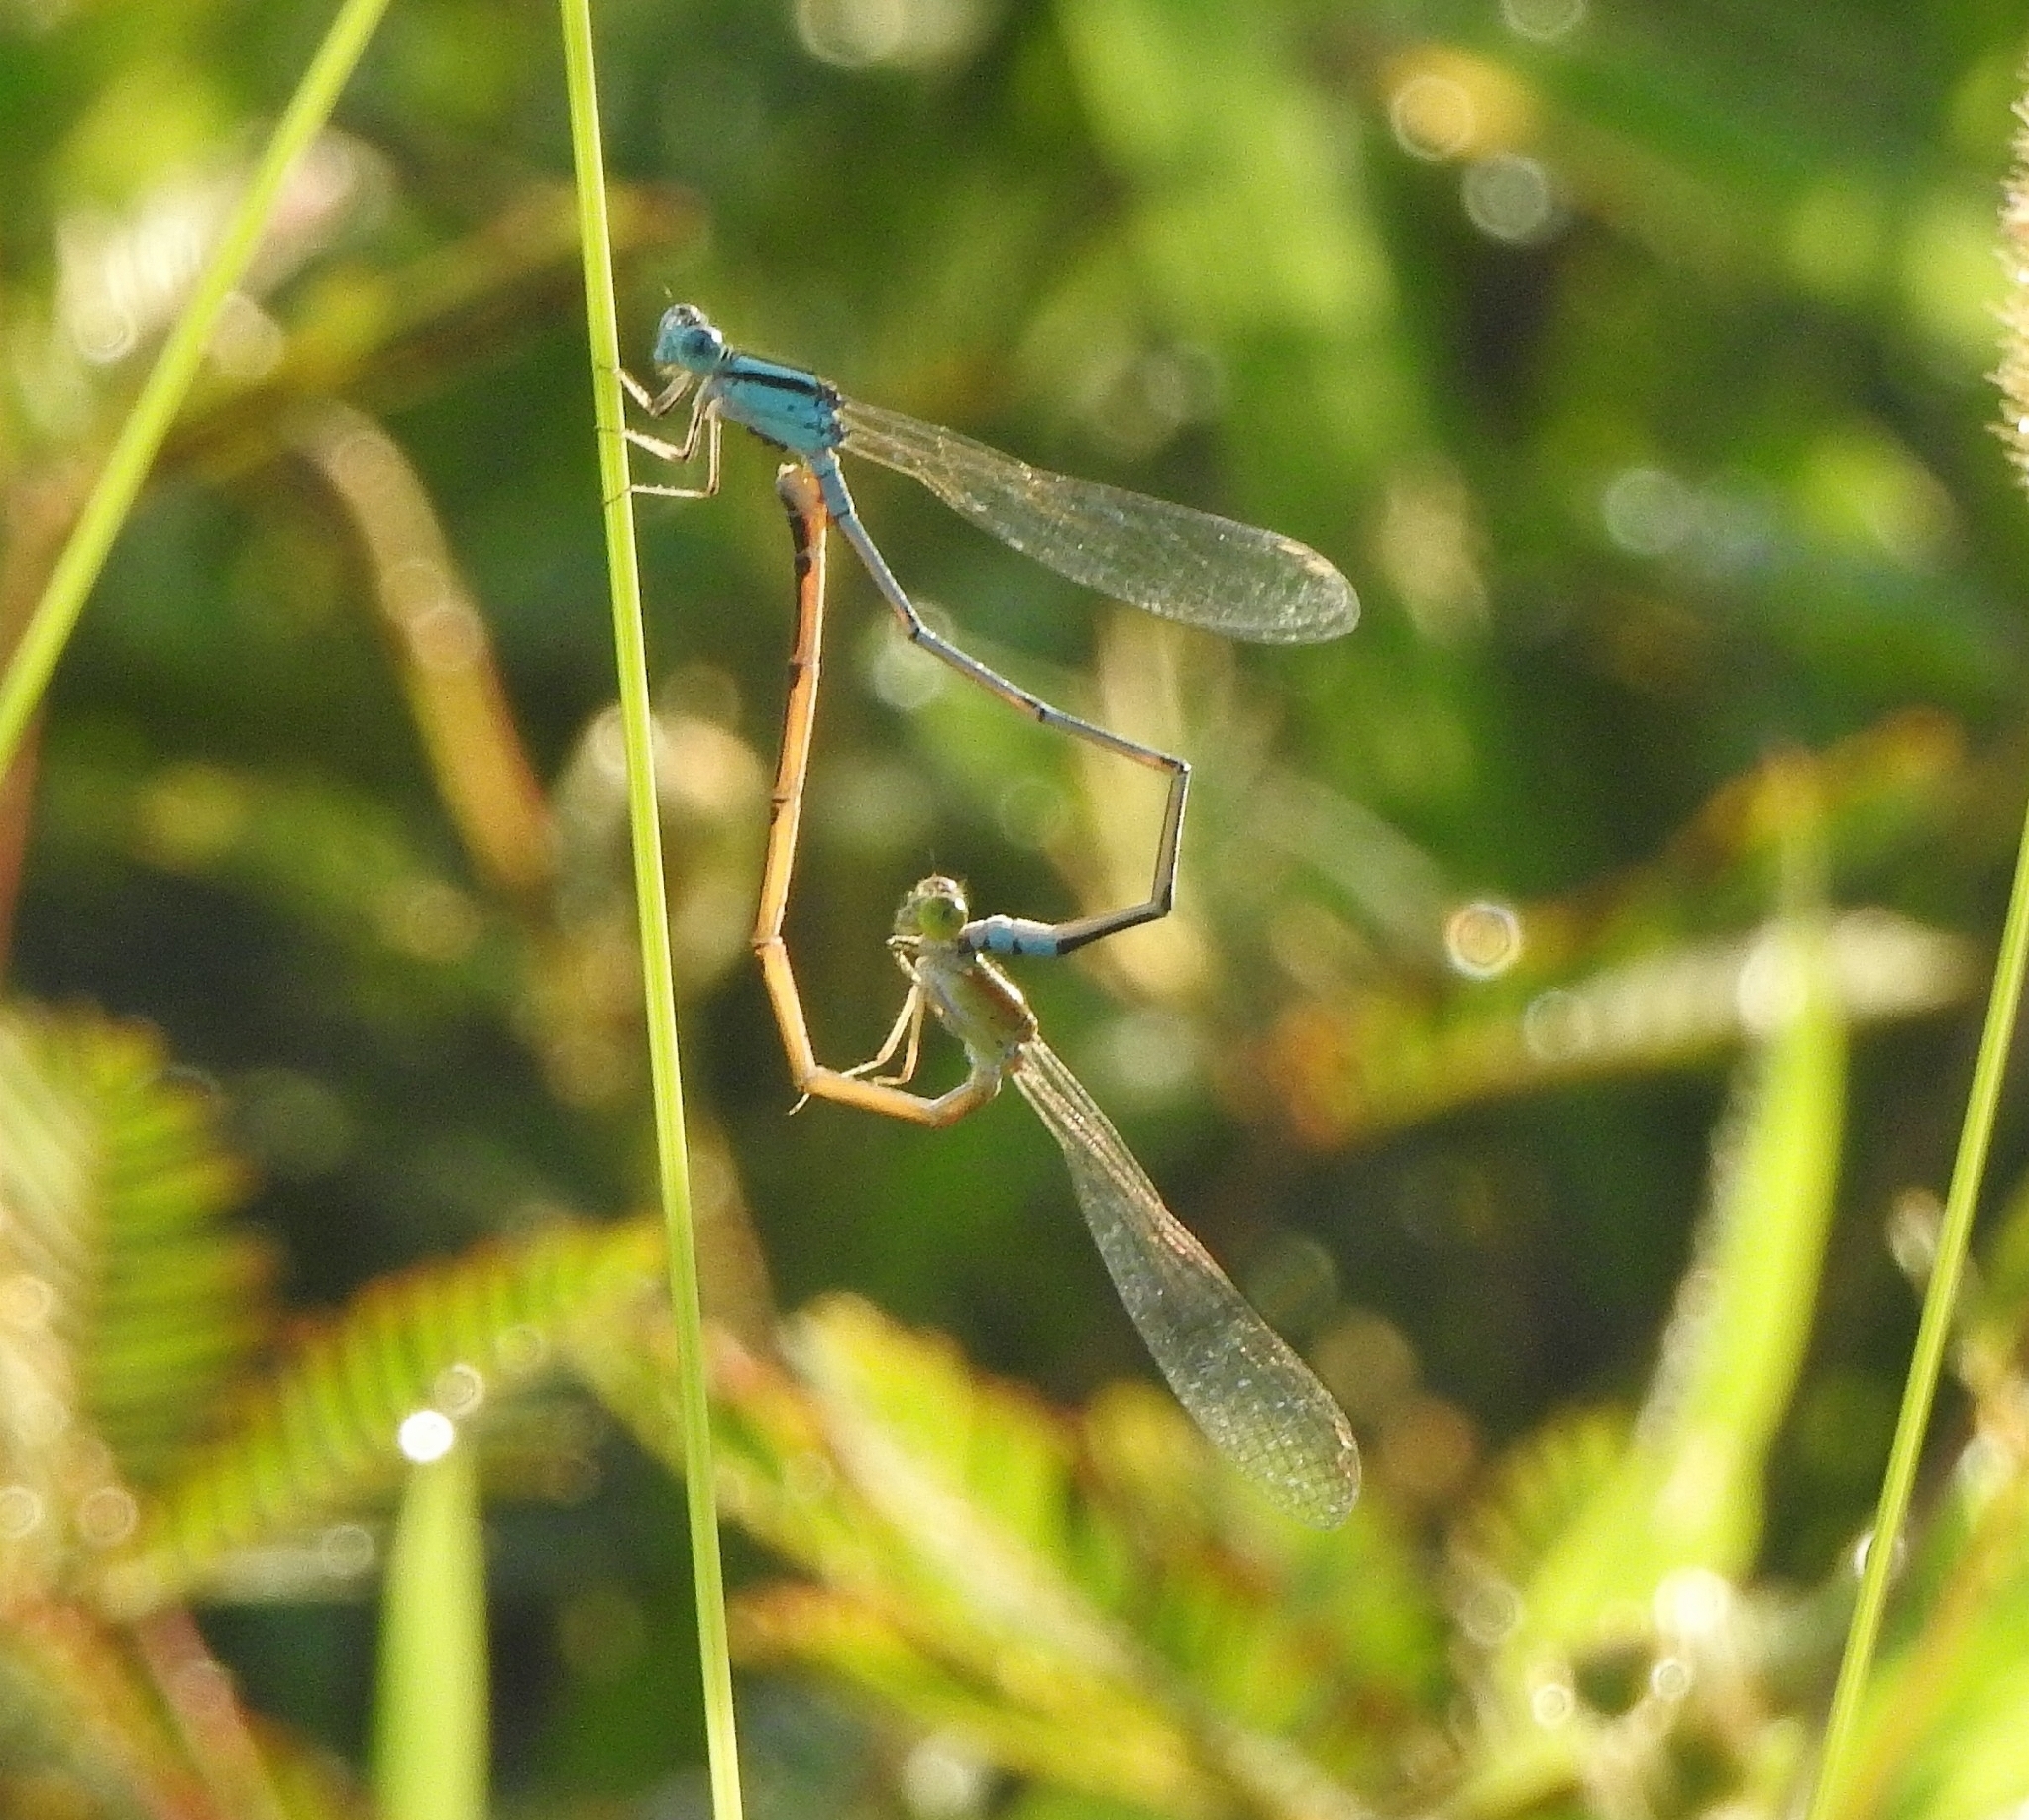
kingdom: Animalia
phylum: Arthropoda
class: Insecta
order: Odonata
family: Coenagrionidae
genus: Pseudagrion
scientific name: Pseudagrion microcephalum
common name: Blue riverdamsel
